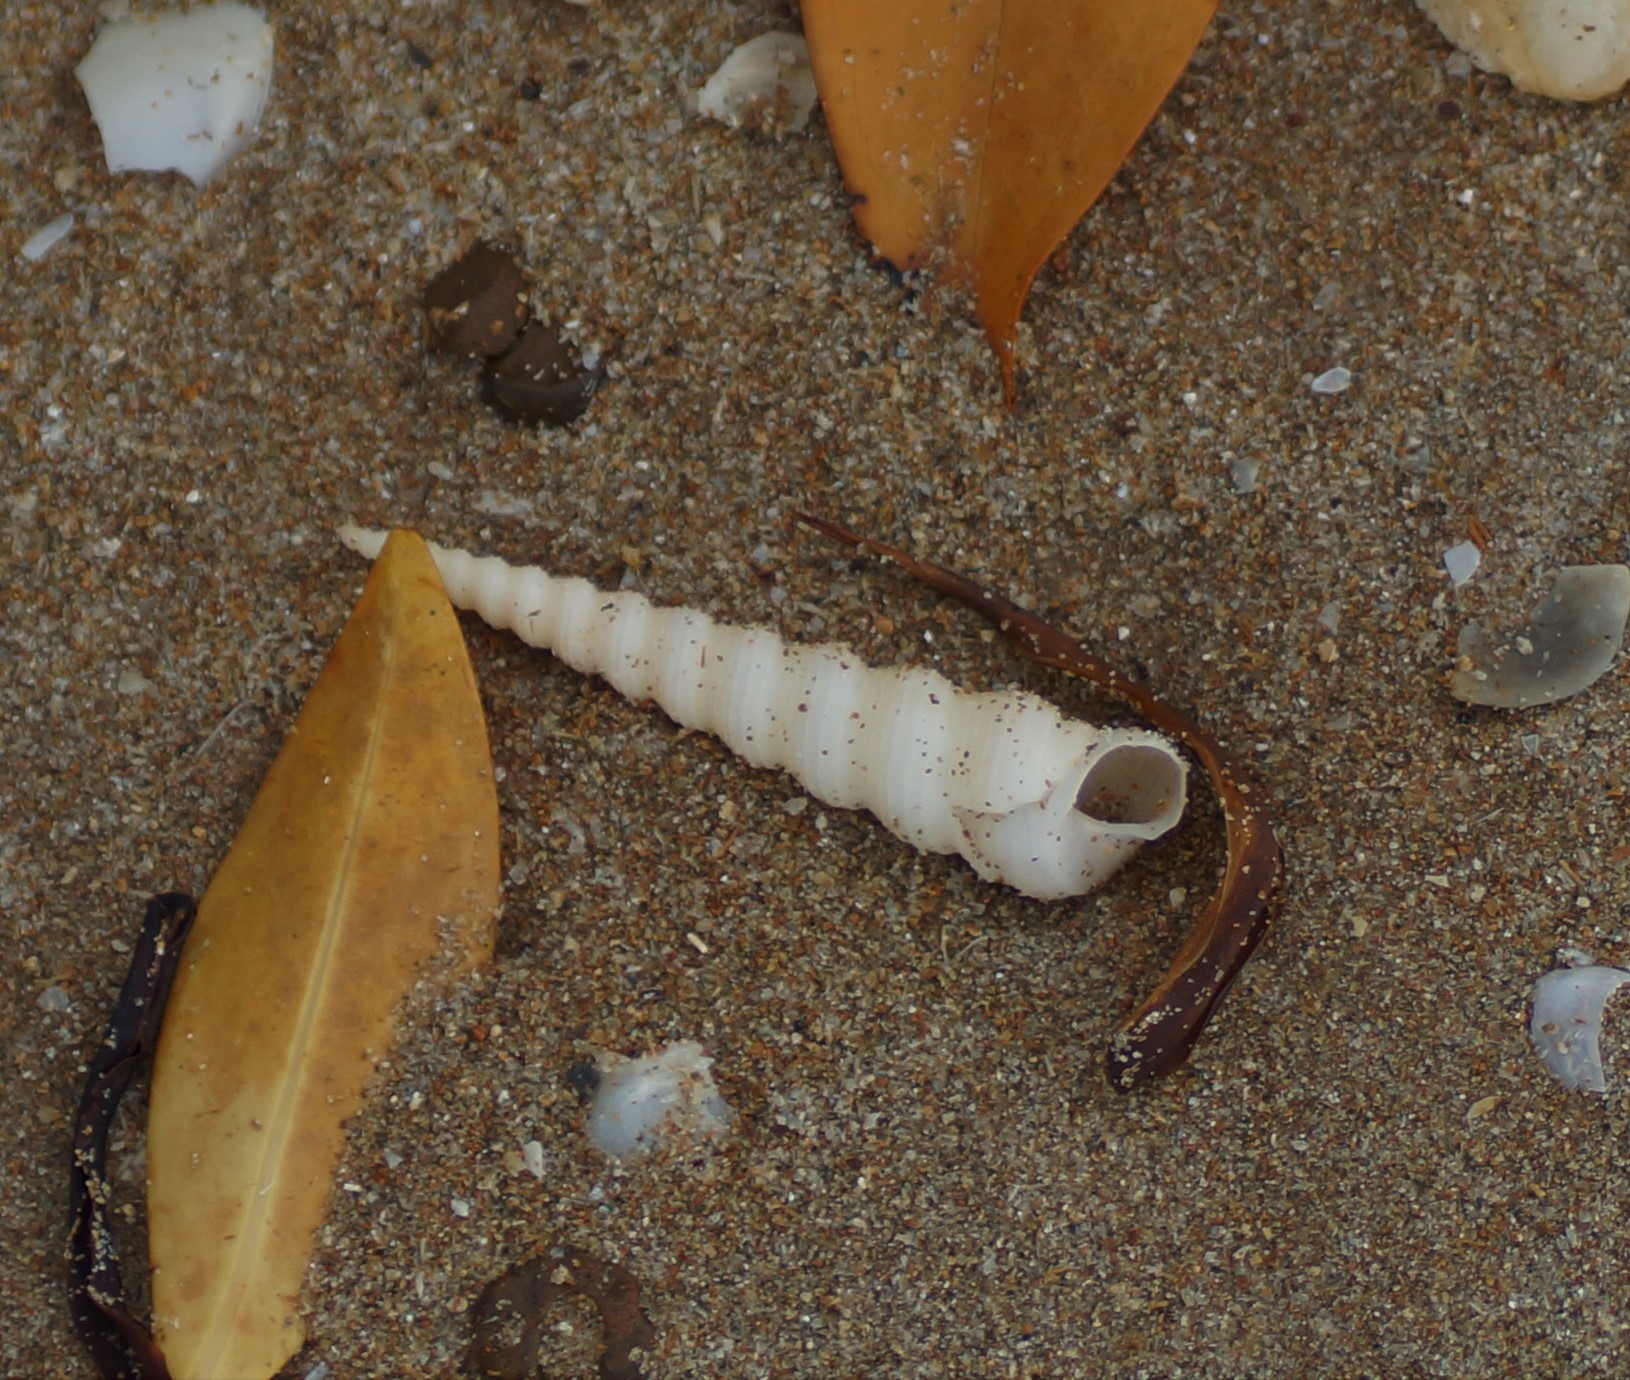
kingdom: Animalia
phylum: Mollusca
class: Gastropoda
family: Turritellidae
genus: Turritella
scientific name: Turritella terebra
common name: Auger screw shell
